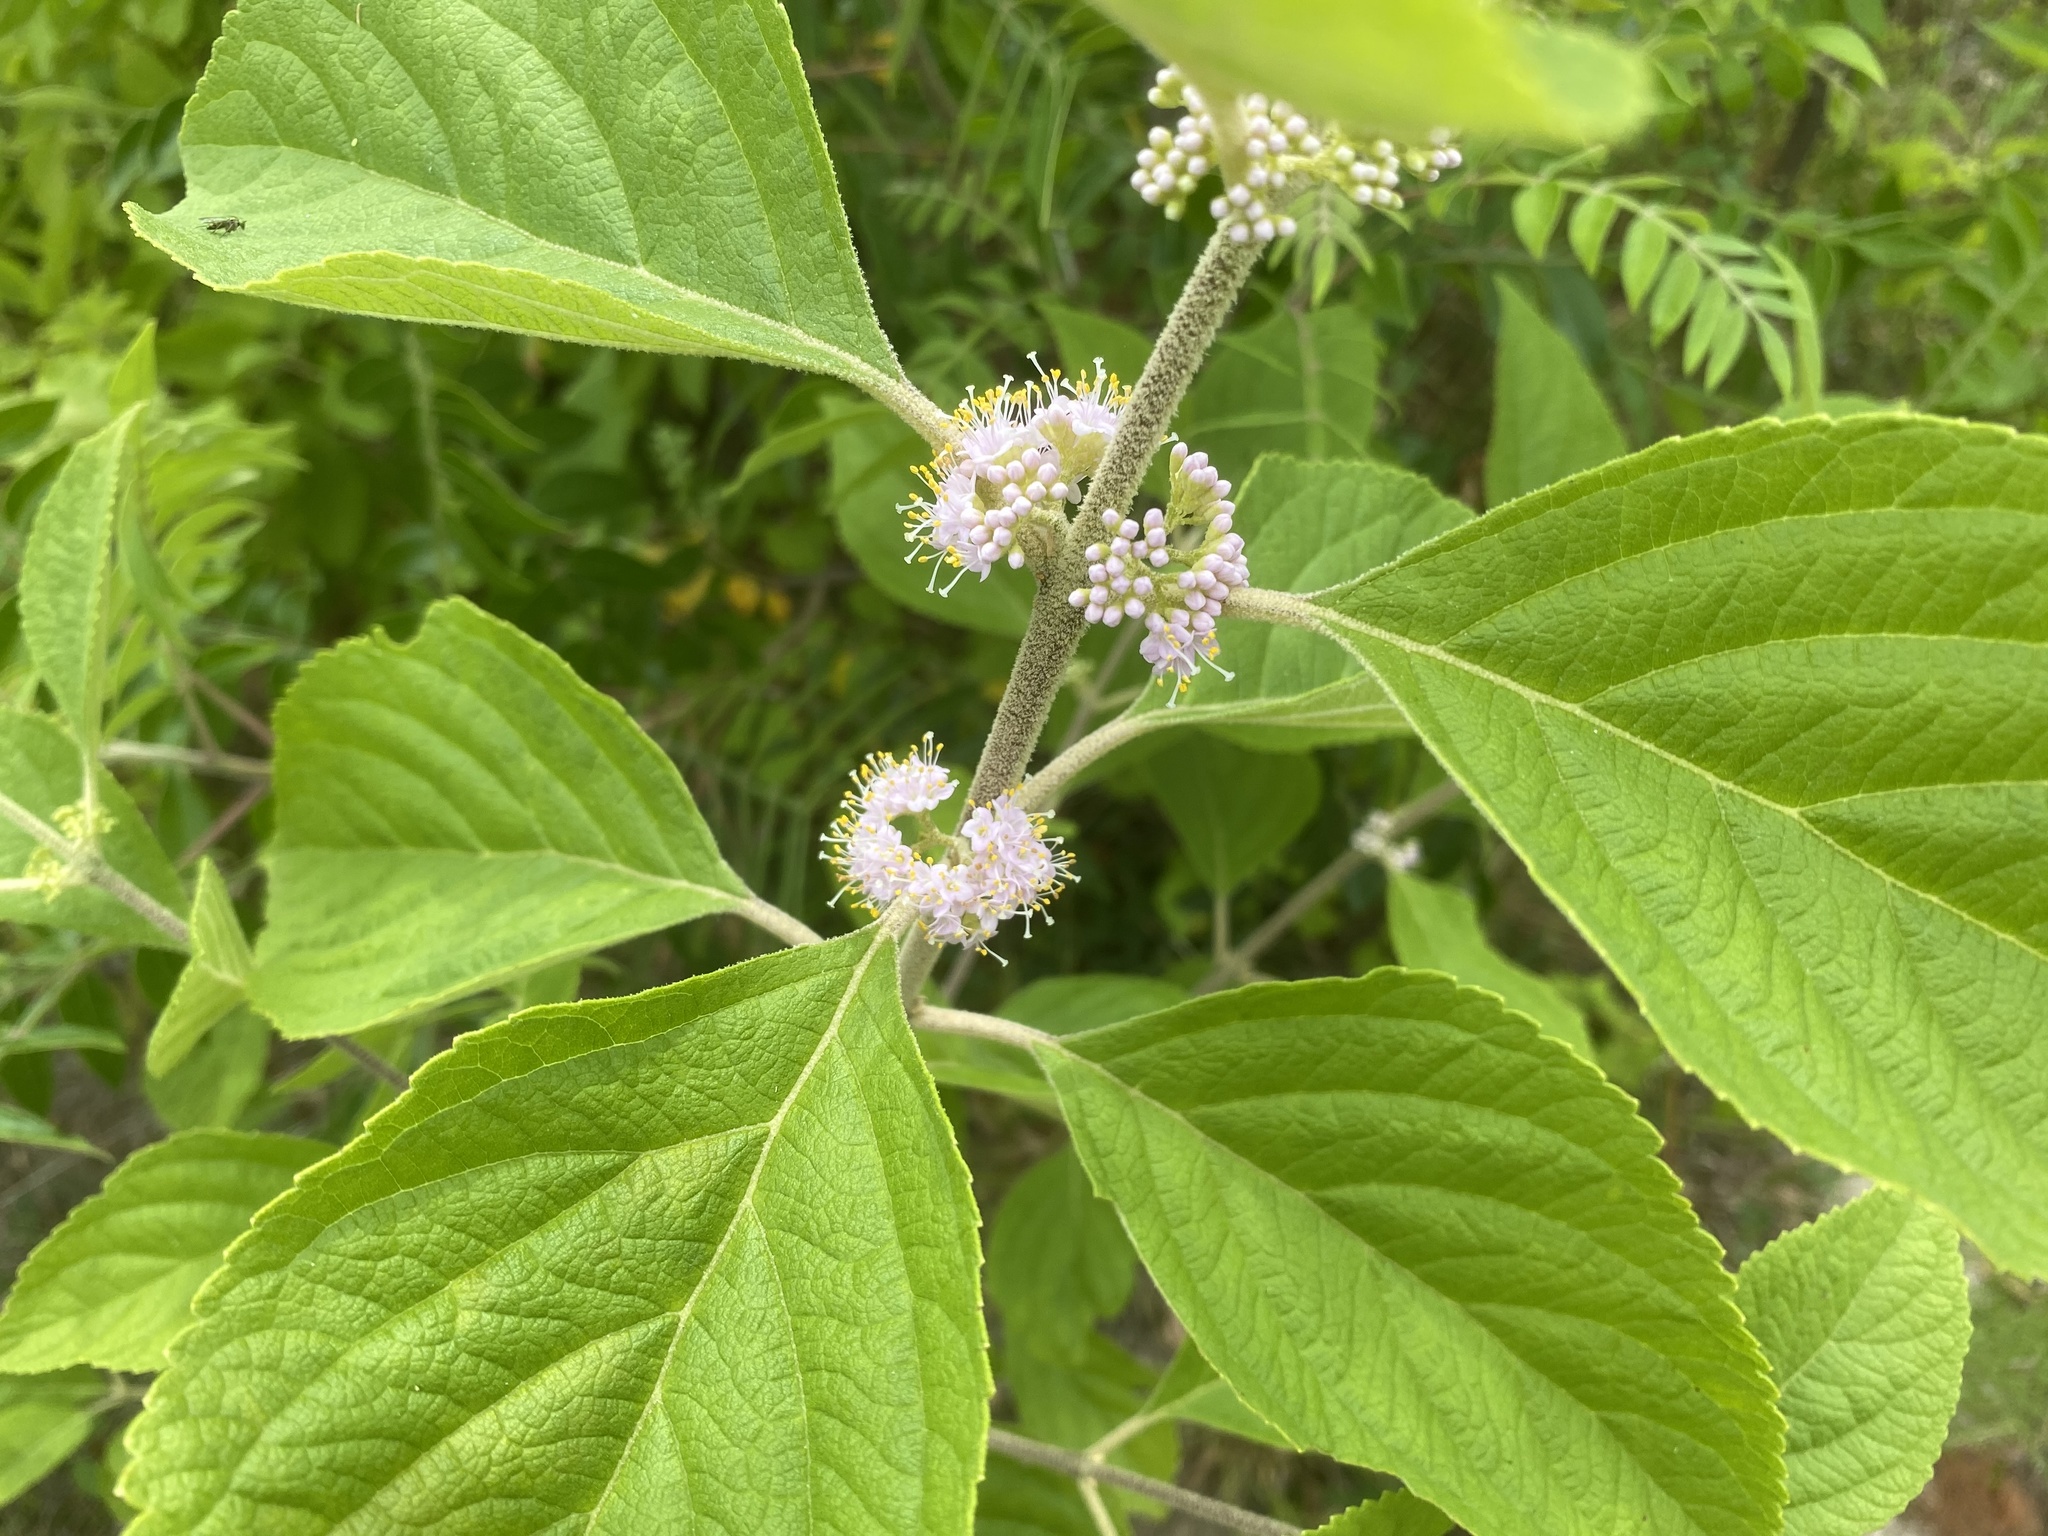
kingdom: Plantae
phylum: Tracheophyta
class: Magnoliopsida
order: Lamiales
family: Lamiaceae
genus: Callicarpa
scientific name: Callicarpa americana
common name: American beautyberry
